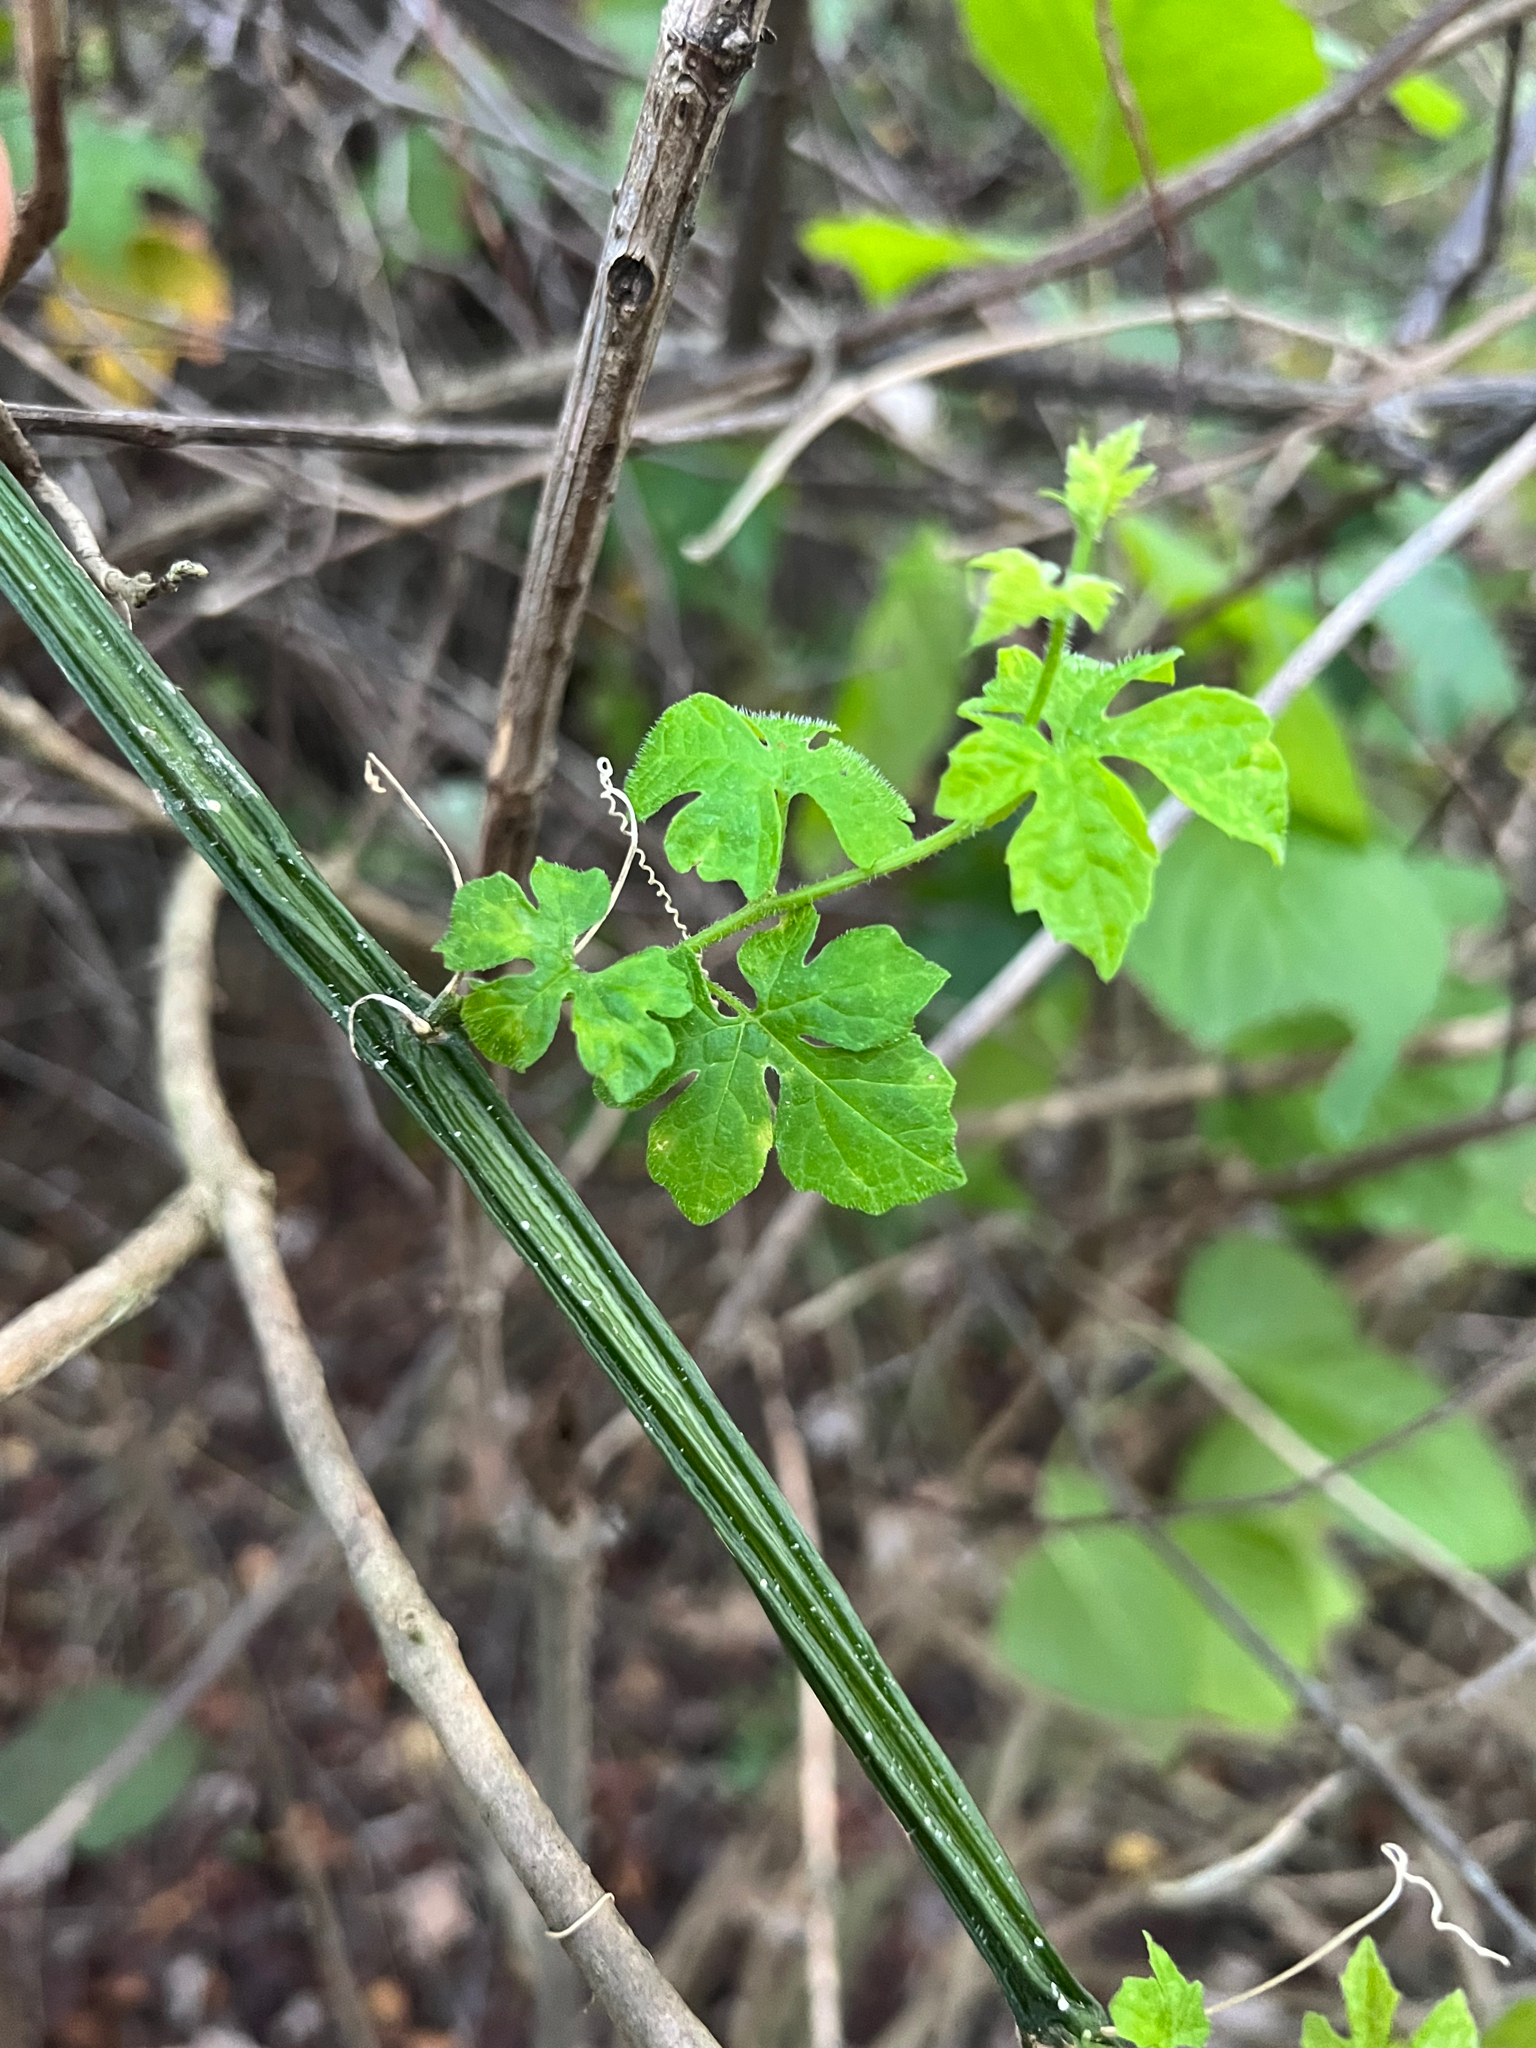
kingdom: Plantae
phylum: Tracheophyta
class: Magnoliopsida
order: Cucurbitales
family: Cucurbitaceae
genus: Momordica
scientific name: Momordica charantia
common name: Balsampear
